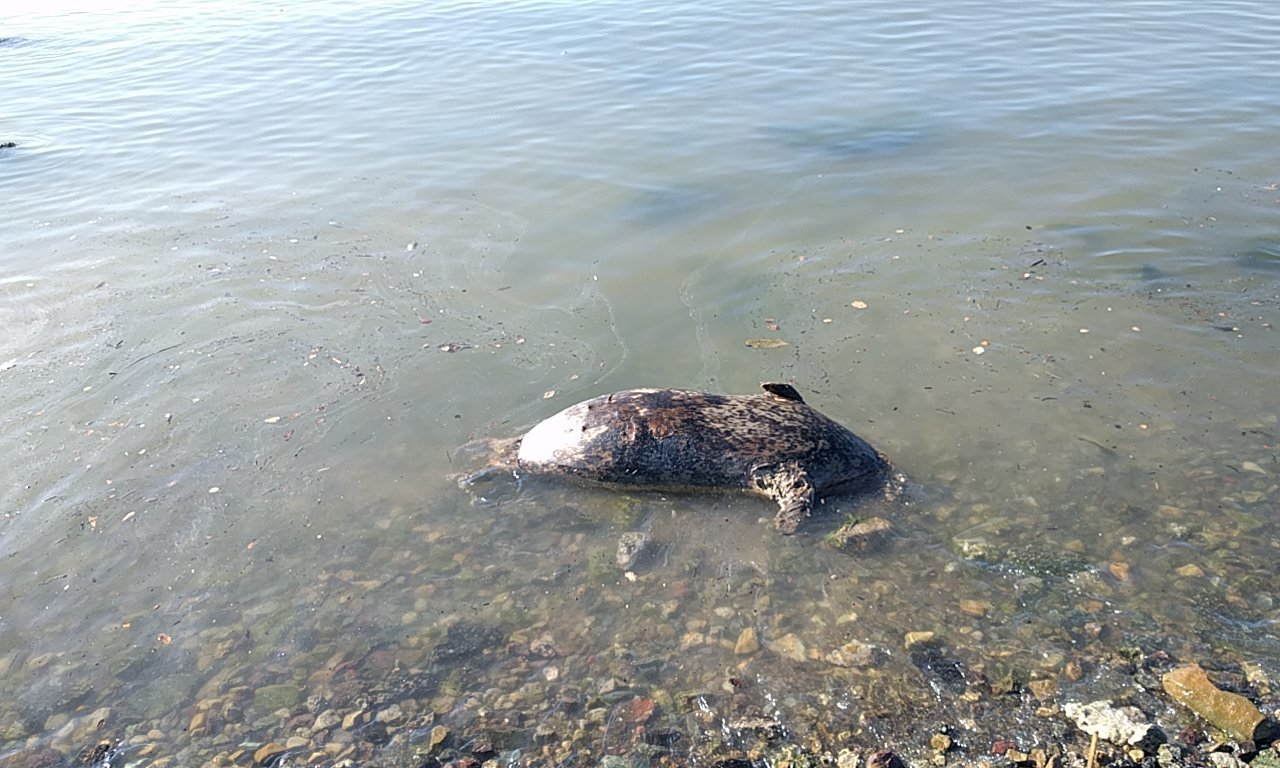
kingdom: Animalia
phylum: Chordata
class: Mammalia
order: Carnivora
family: Phocidae
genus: Phoca
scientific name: Phoca vitulina
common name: Harbor seal
